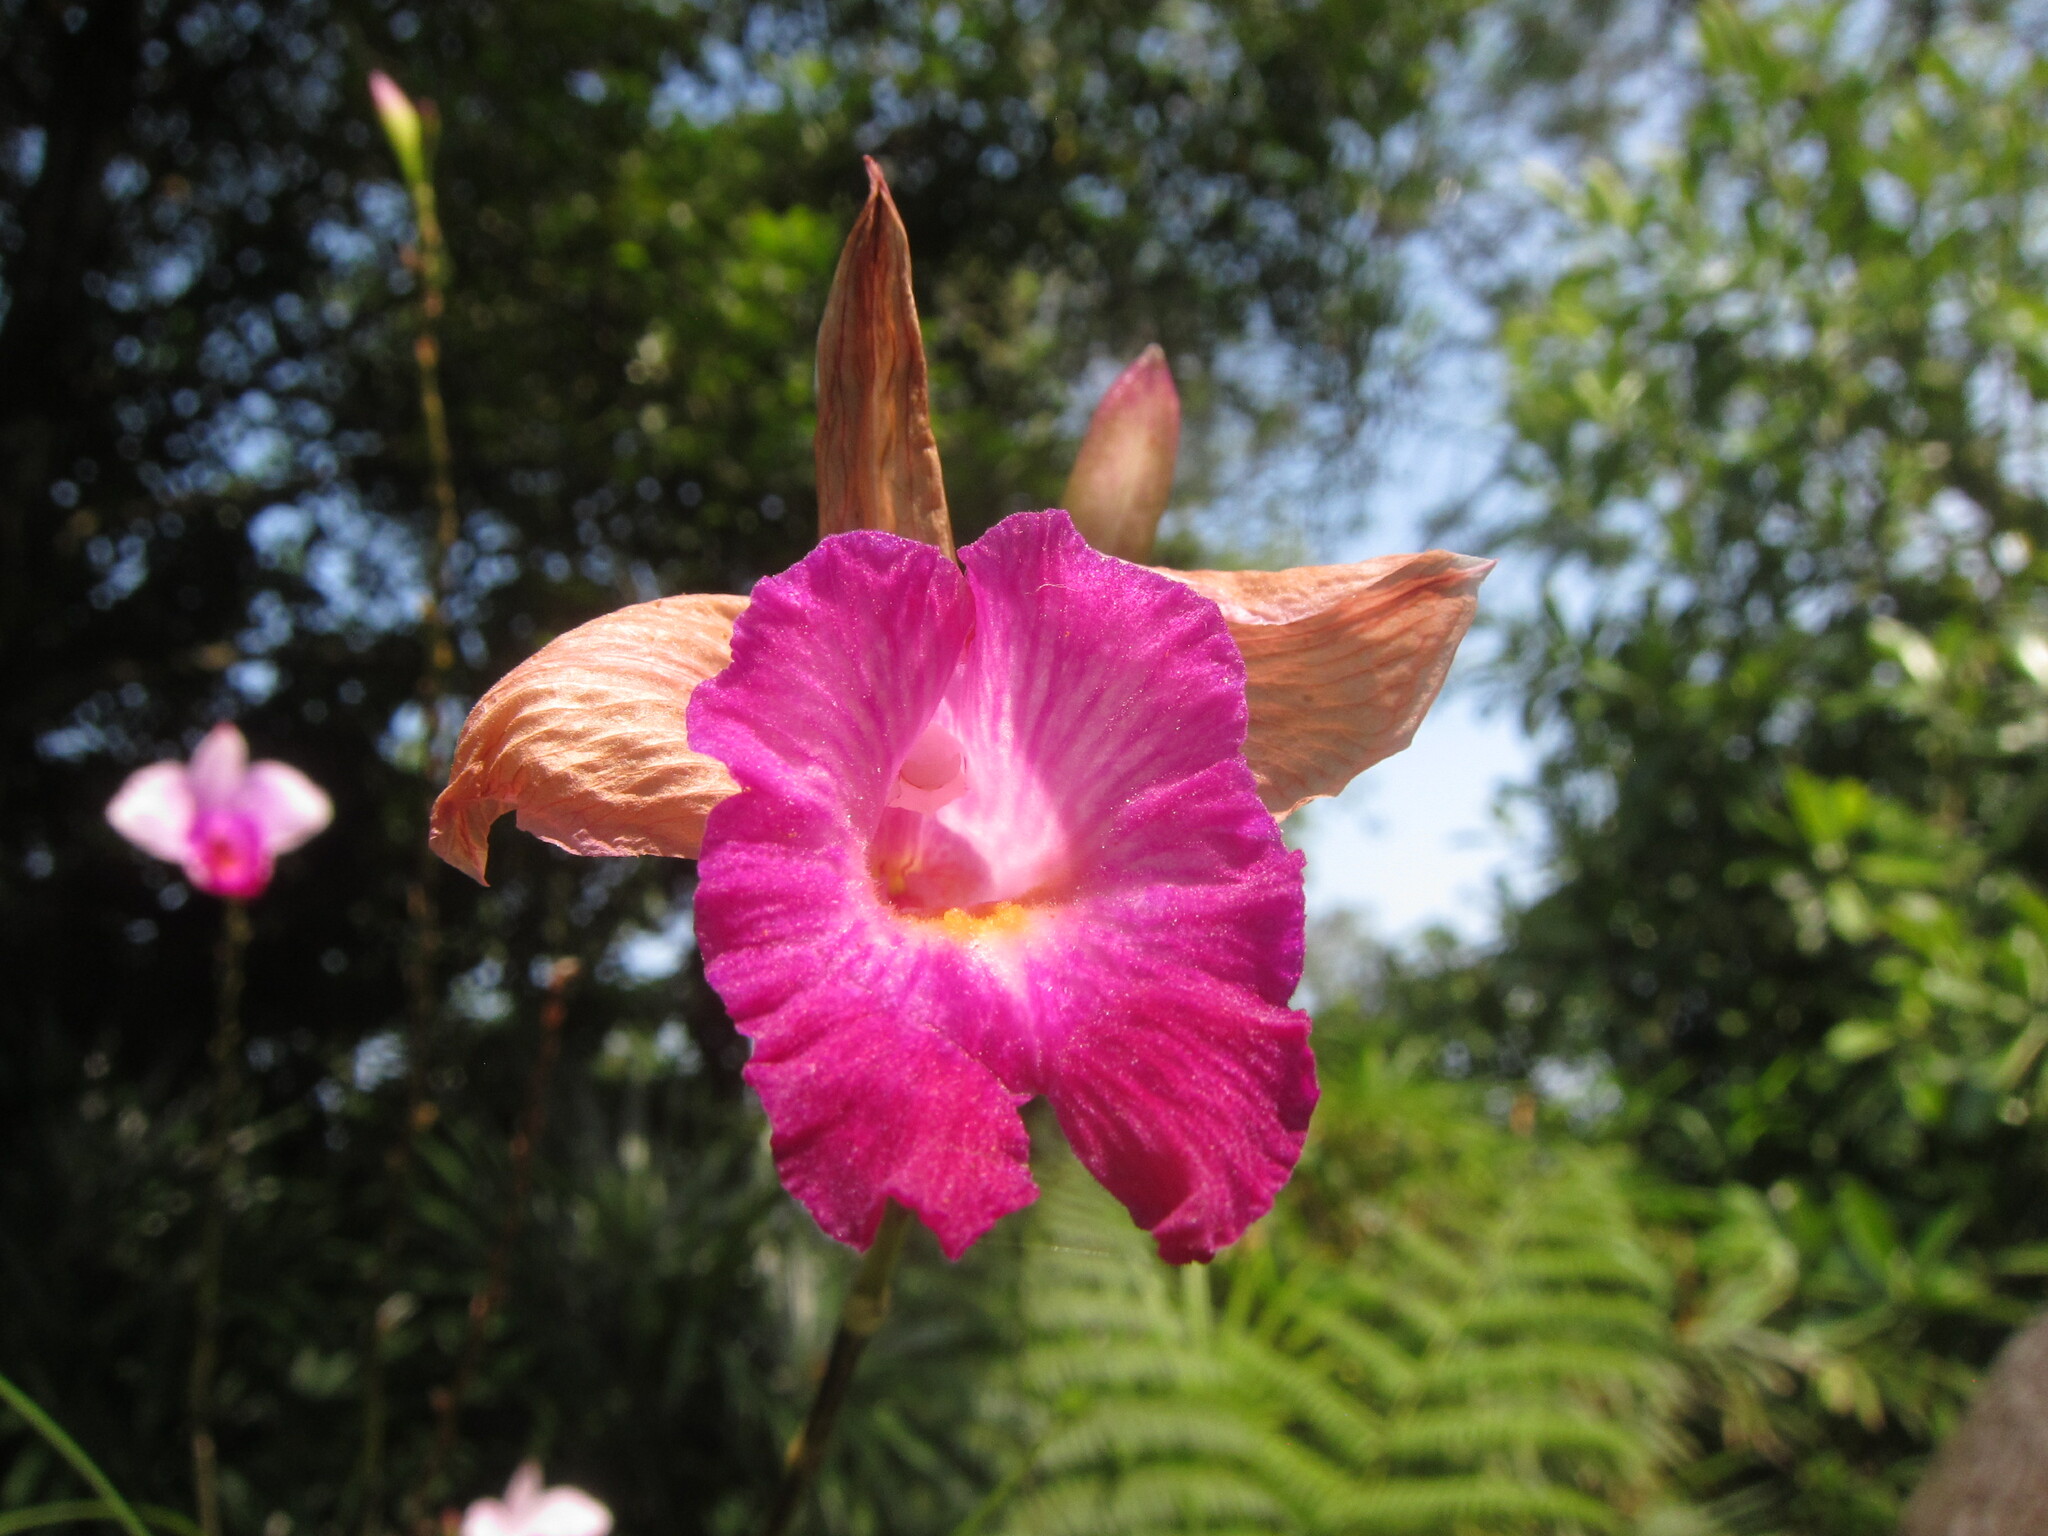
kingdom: Plantae
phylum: Tracheophyta
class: Liliopsida
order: Asparagales
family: Orchidaceae
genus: Arundina
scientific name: Arundina graminifolia
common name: Bamboo orchid
